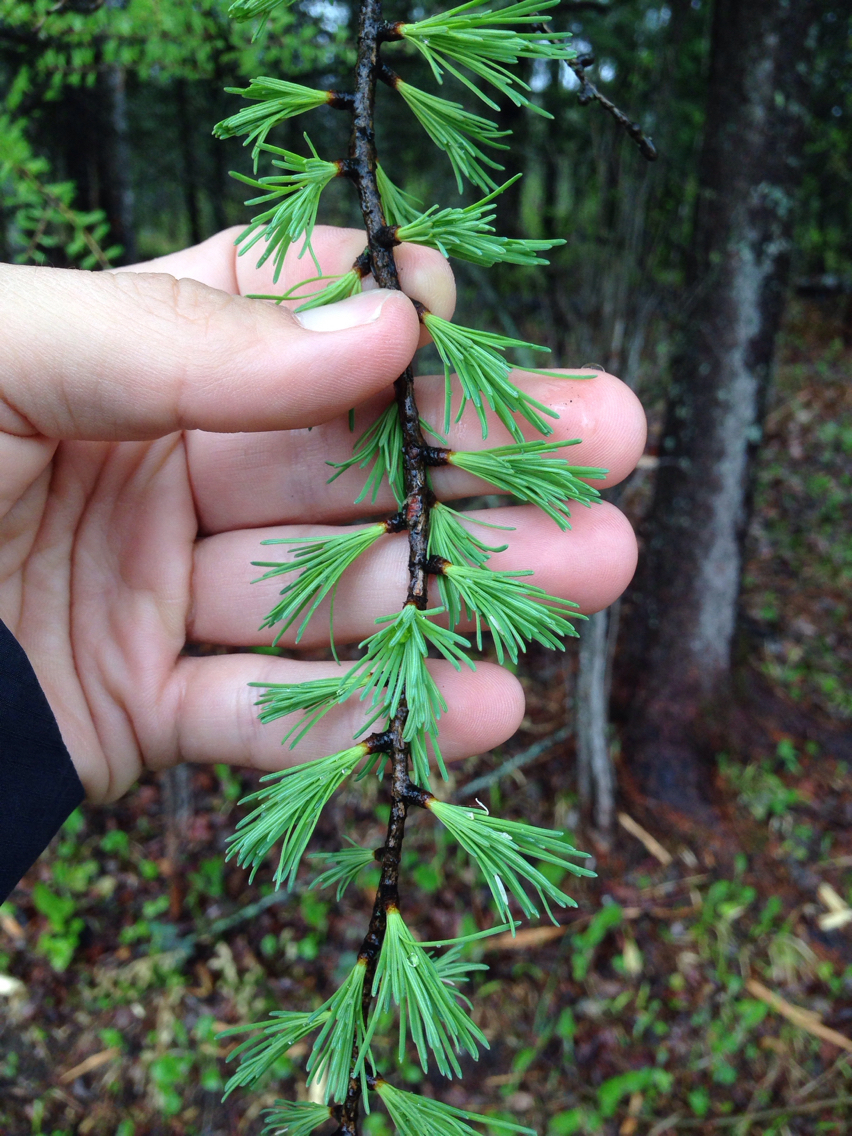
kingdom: Plantae
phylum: Tracheophyta
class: Pinopsida
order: Pinales
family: Pinaceae
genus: Larix
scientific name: Larix laricina
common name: American larch
